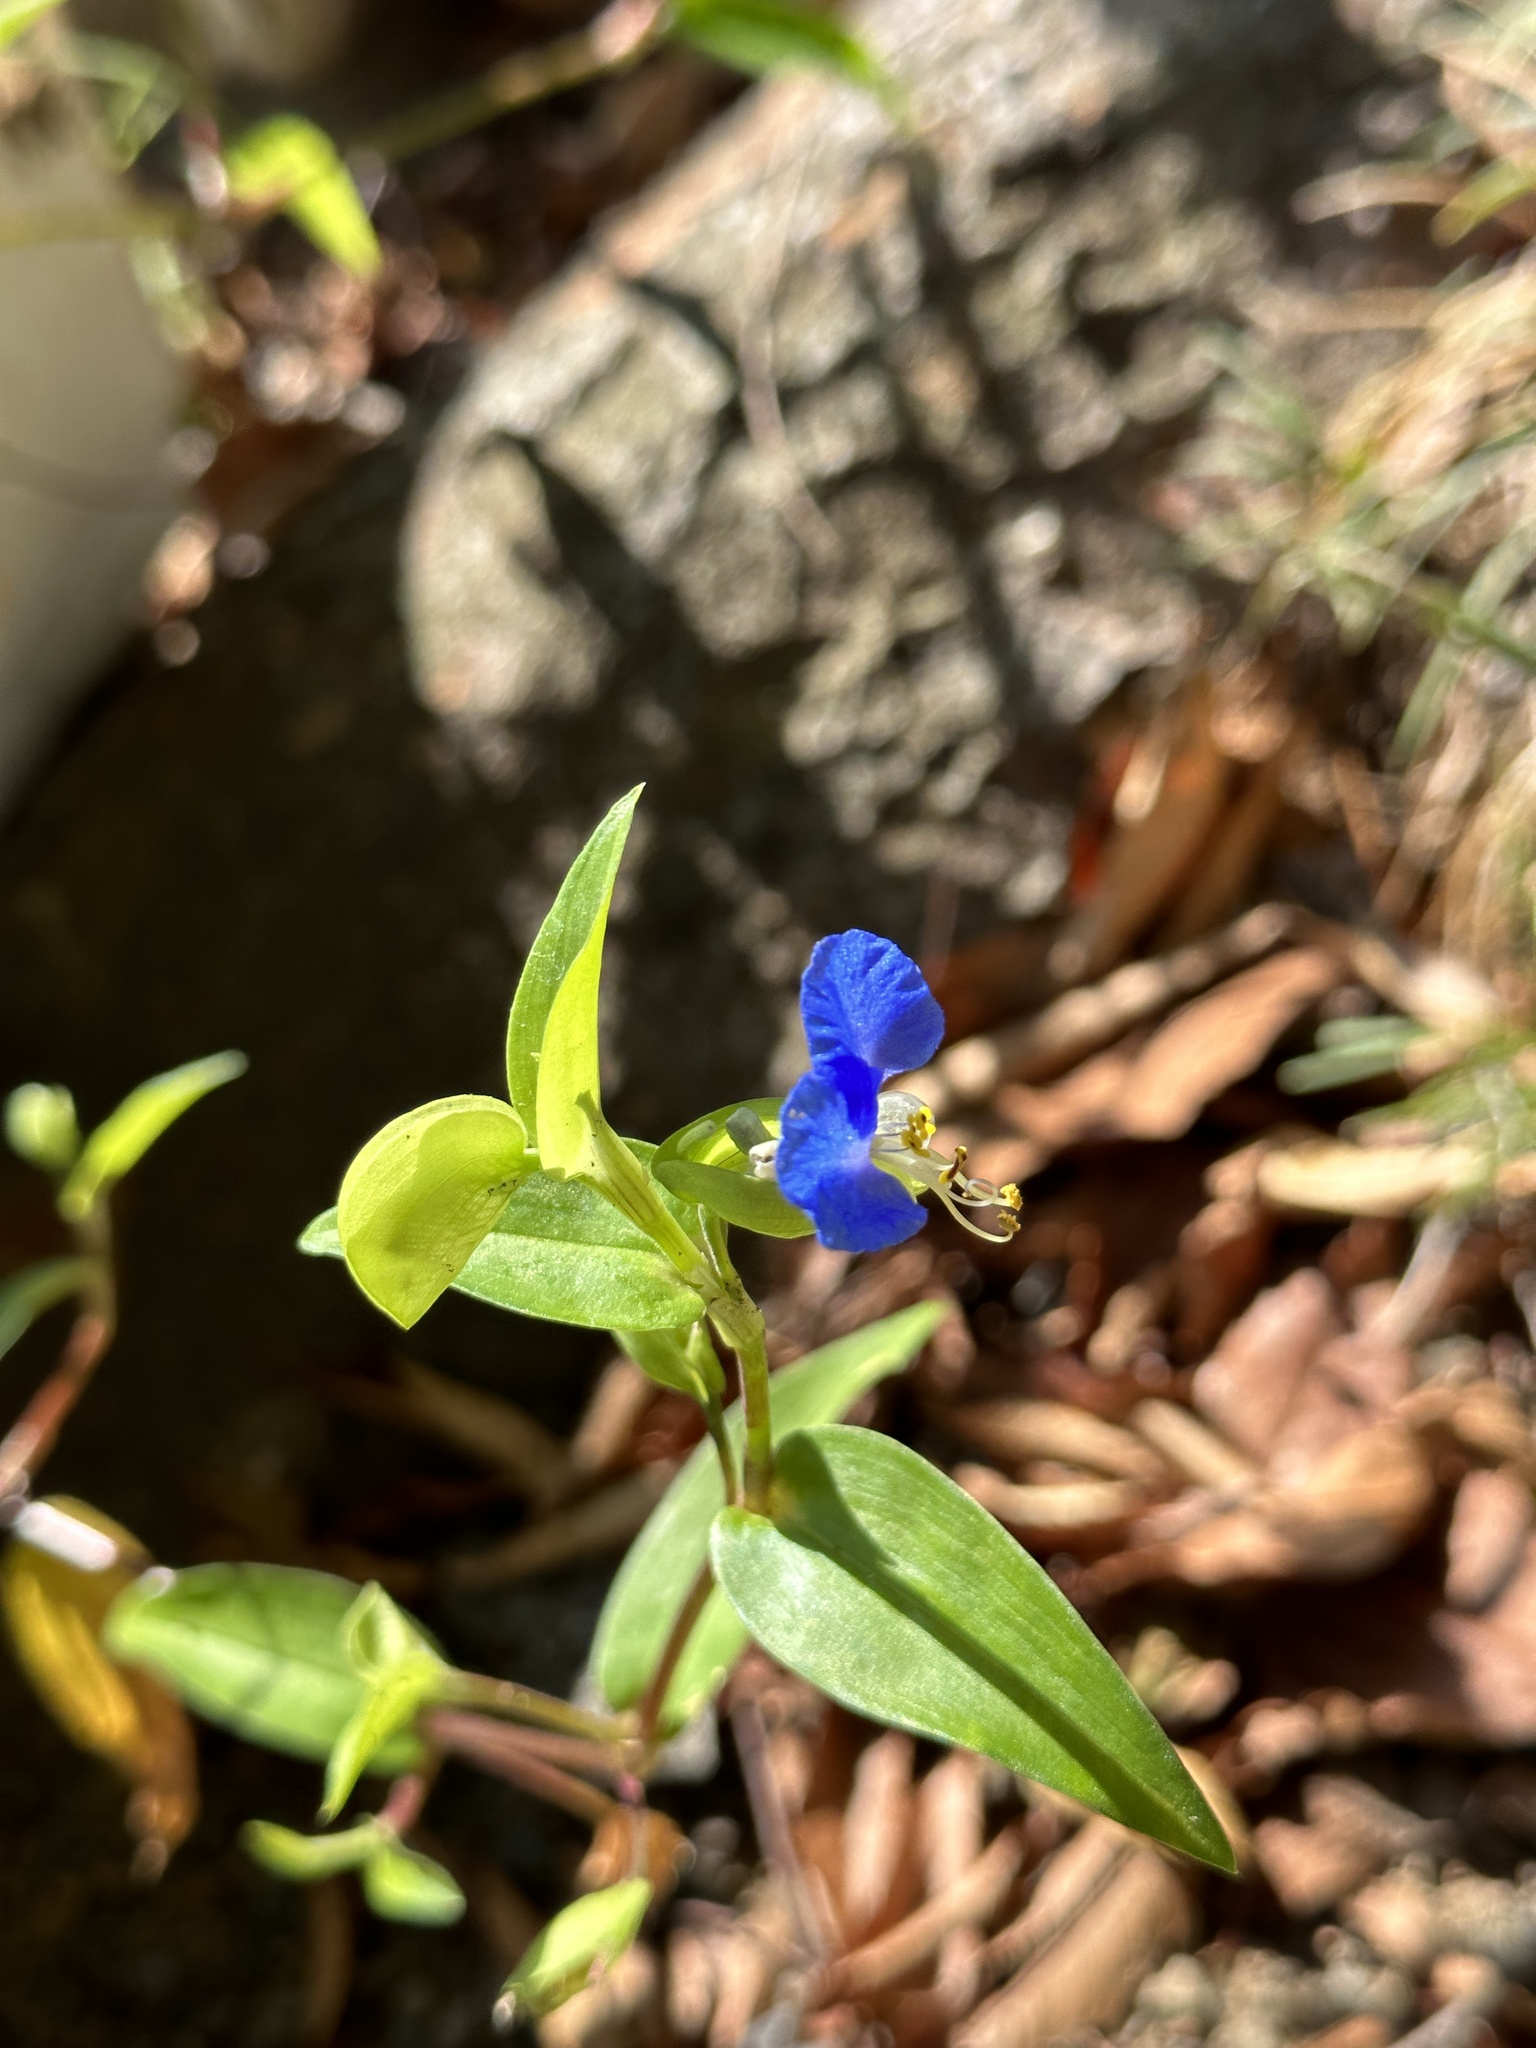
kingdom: Plantae
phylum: Tracheophyta
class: Liliopsida
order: Commelinales
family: Commelinaceae
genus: Commelina
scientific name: Commelina communis
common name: Asiatic dayflower
